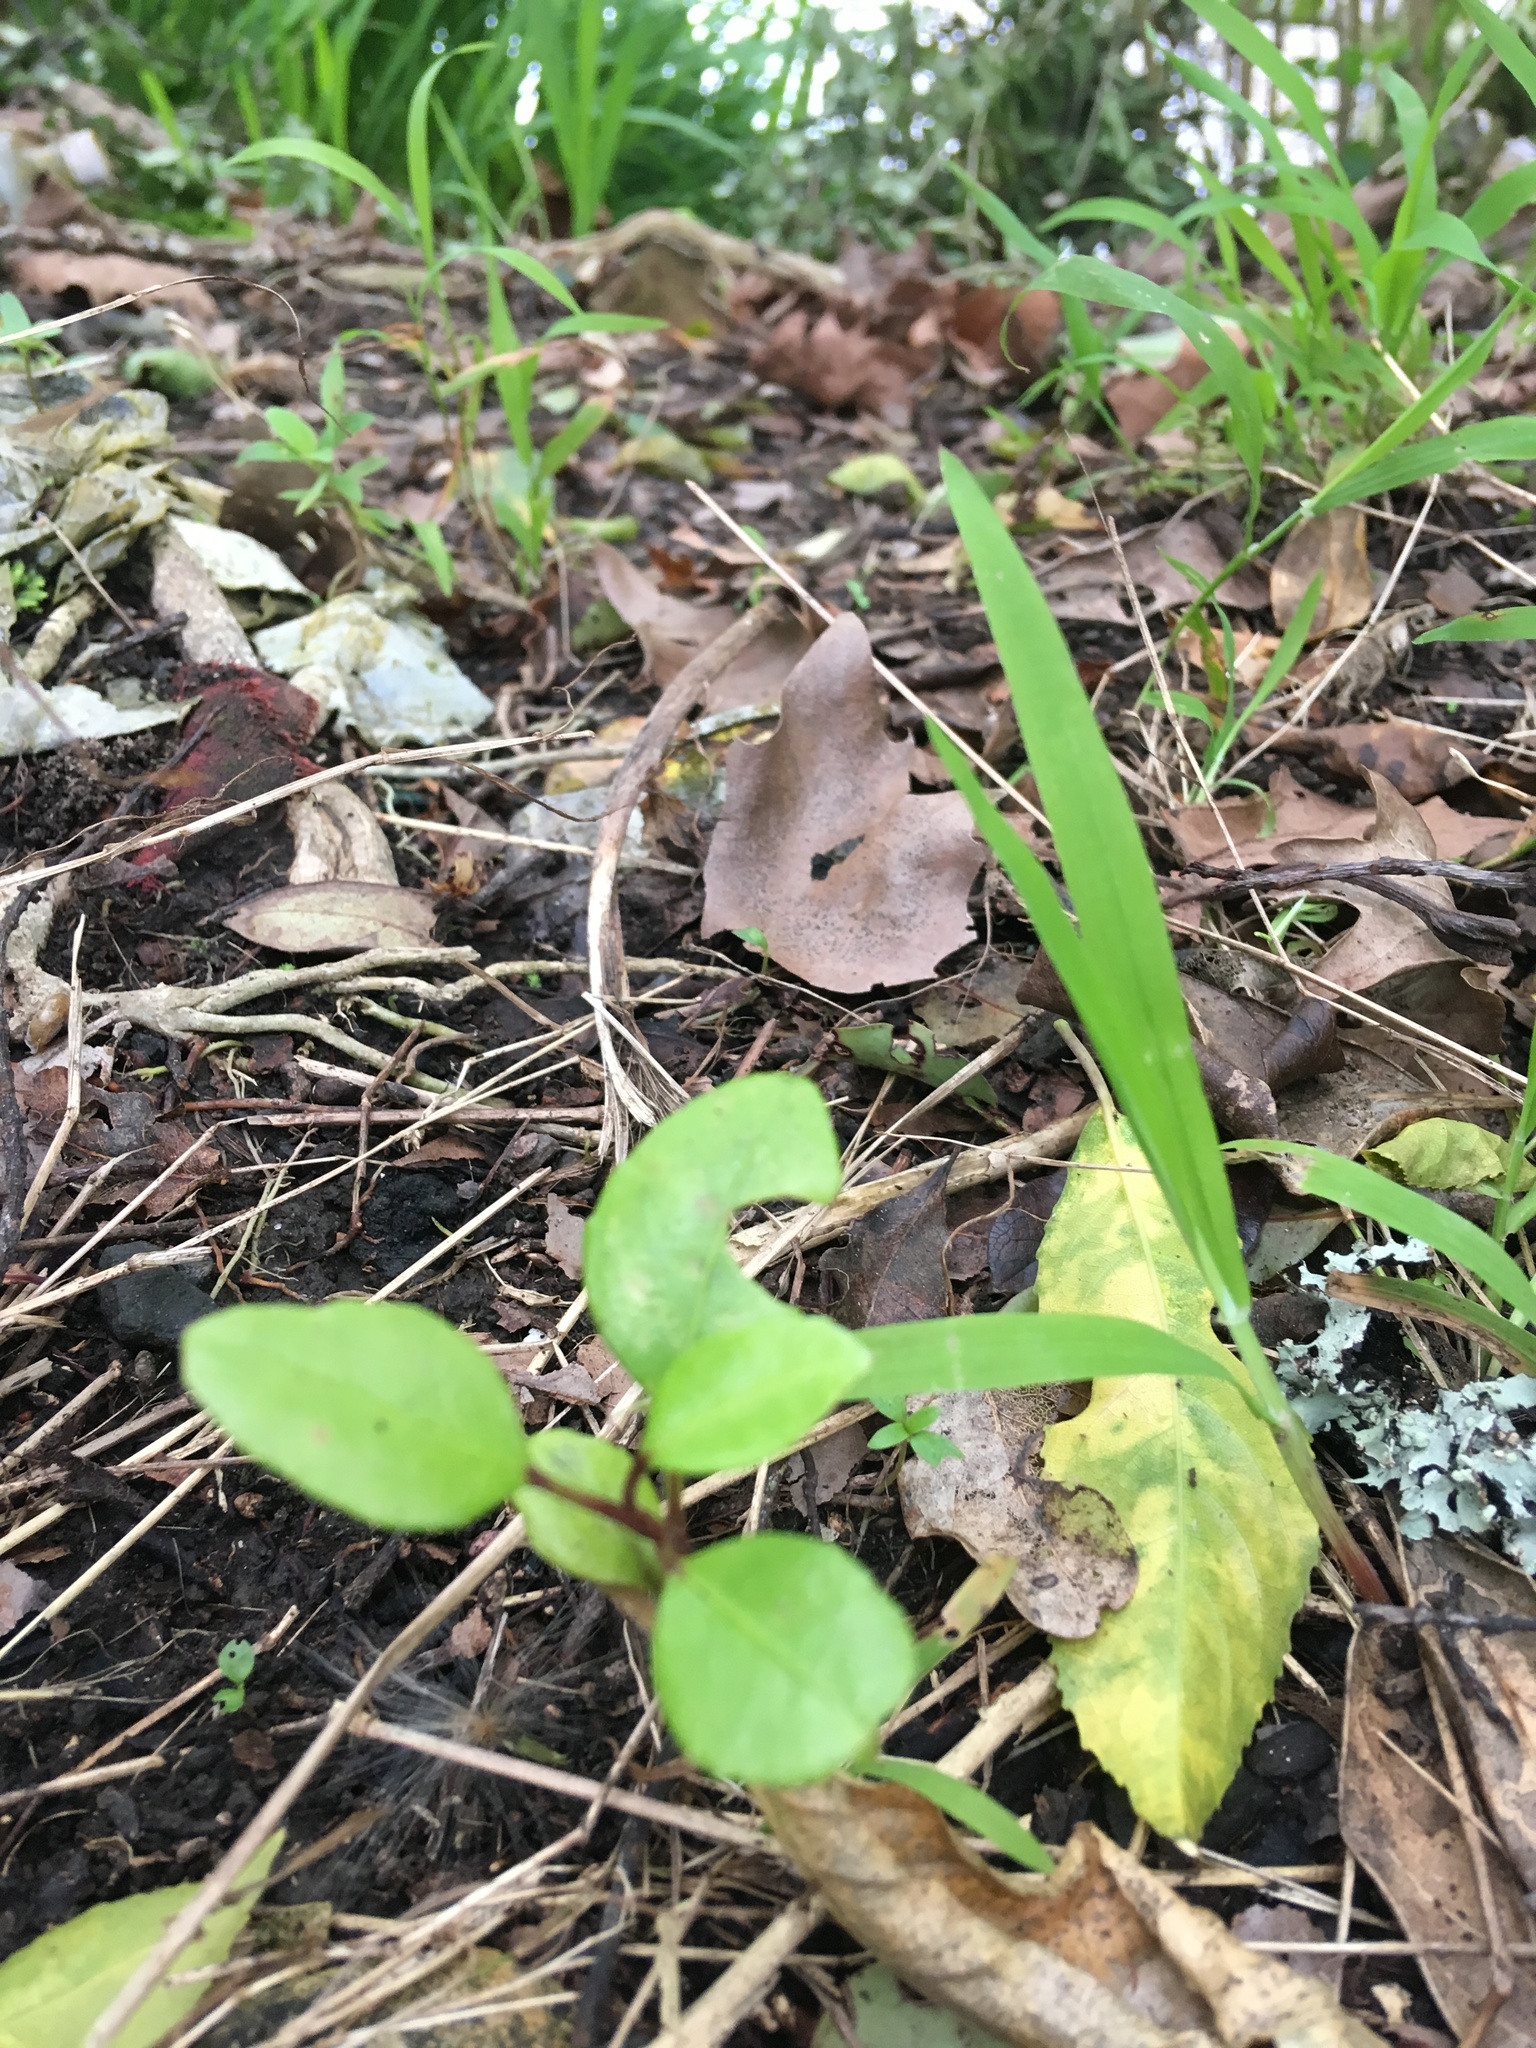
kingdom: Plantae
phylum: Tracheophyta
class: Liliopsida
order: Poales
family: Poaceae
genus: Ehrharta
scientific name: Ehrharta erecta
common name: Panic veldtgrass
